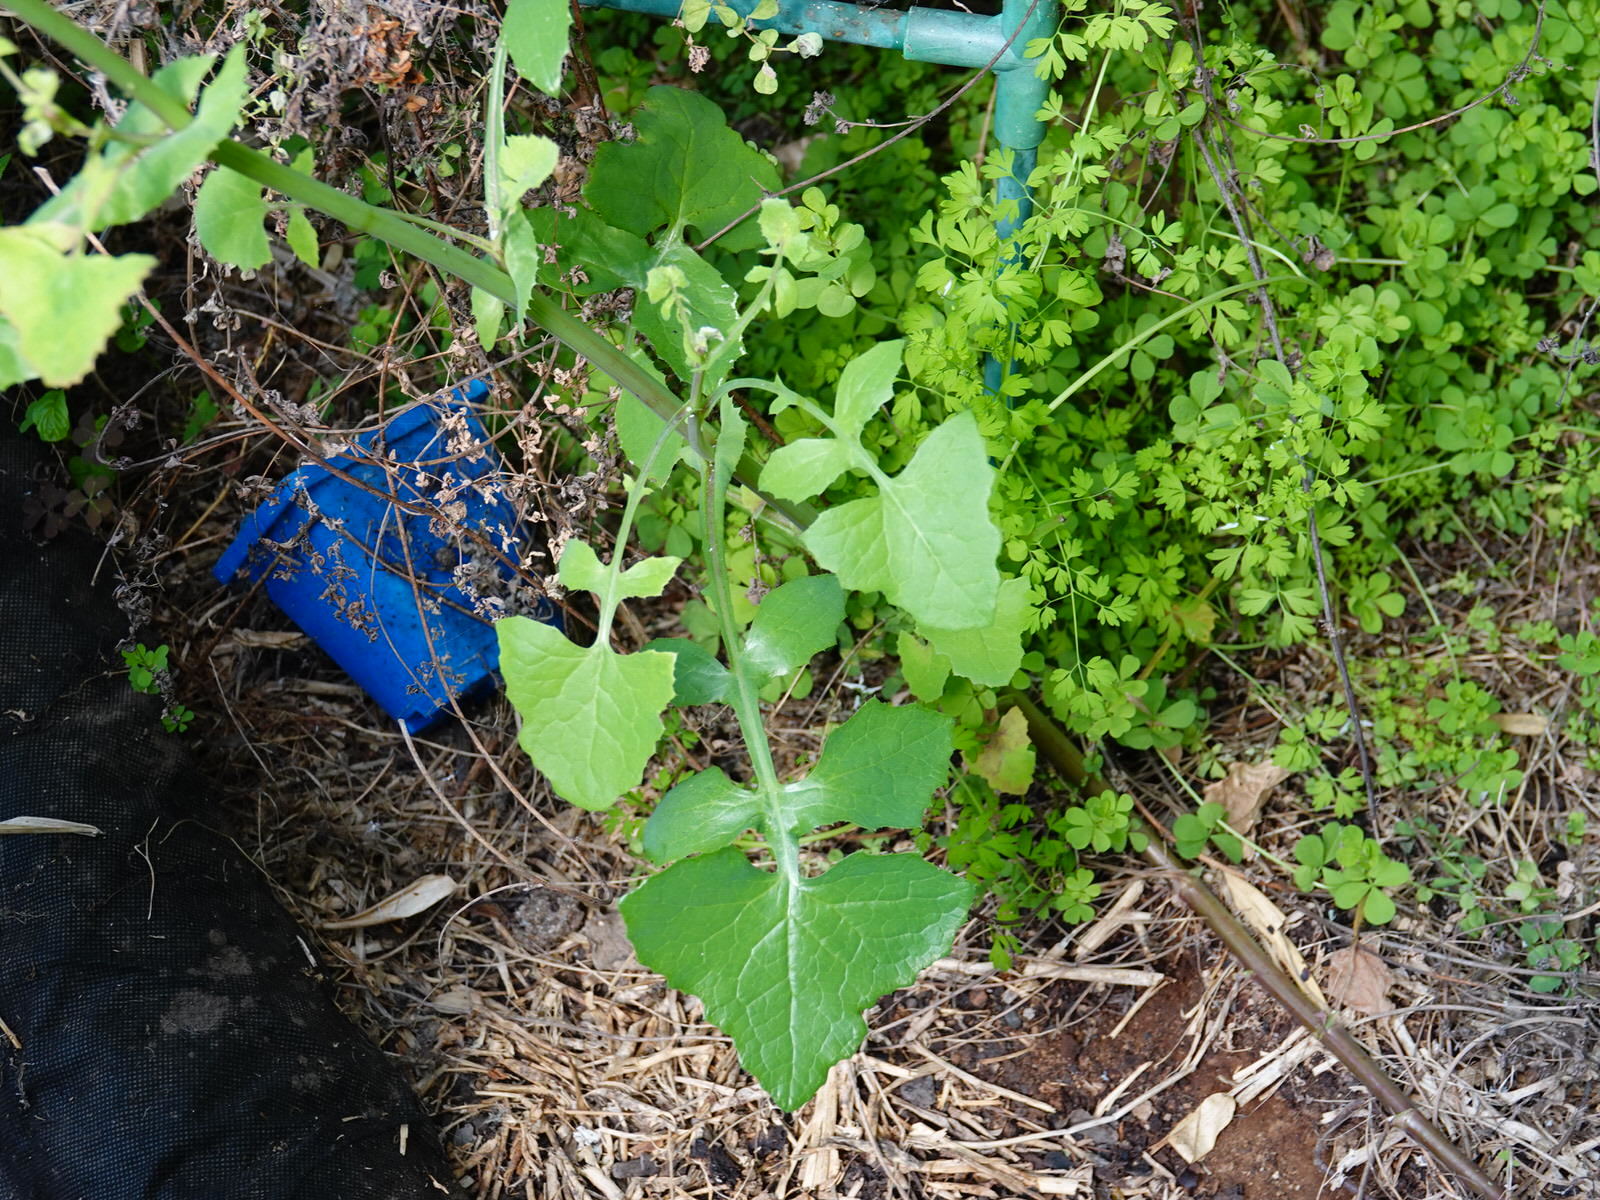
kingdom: Plantae
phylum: Tracheophyta
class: Magnoliopsida
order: Asterales
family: Asteraceae
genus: Sonchus
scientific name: Sonchus oleraceus
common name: Common sowthistle
